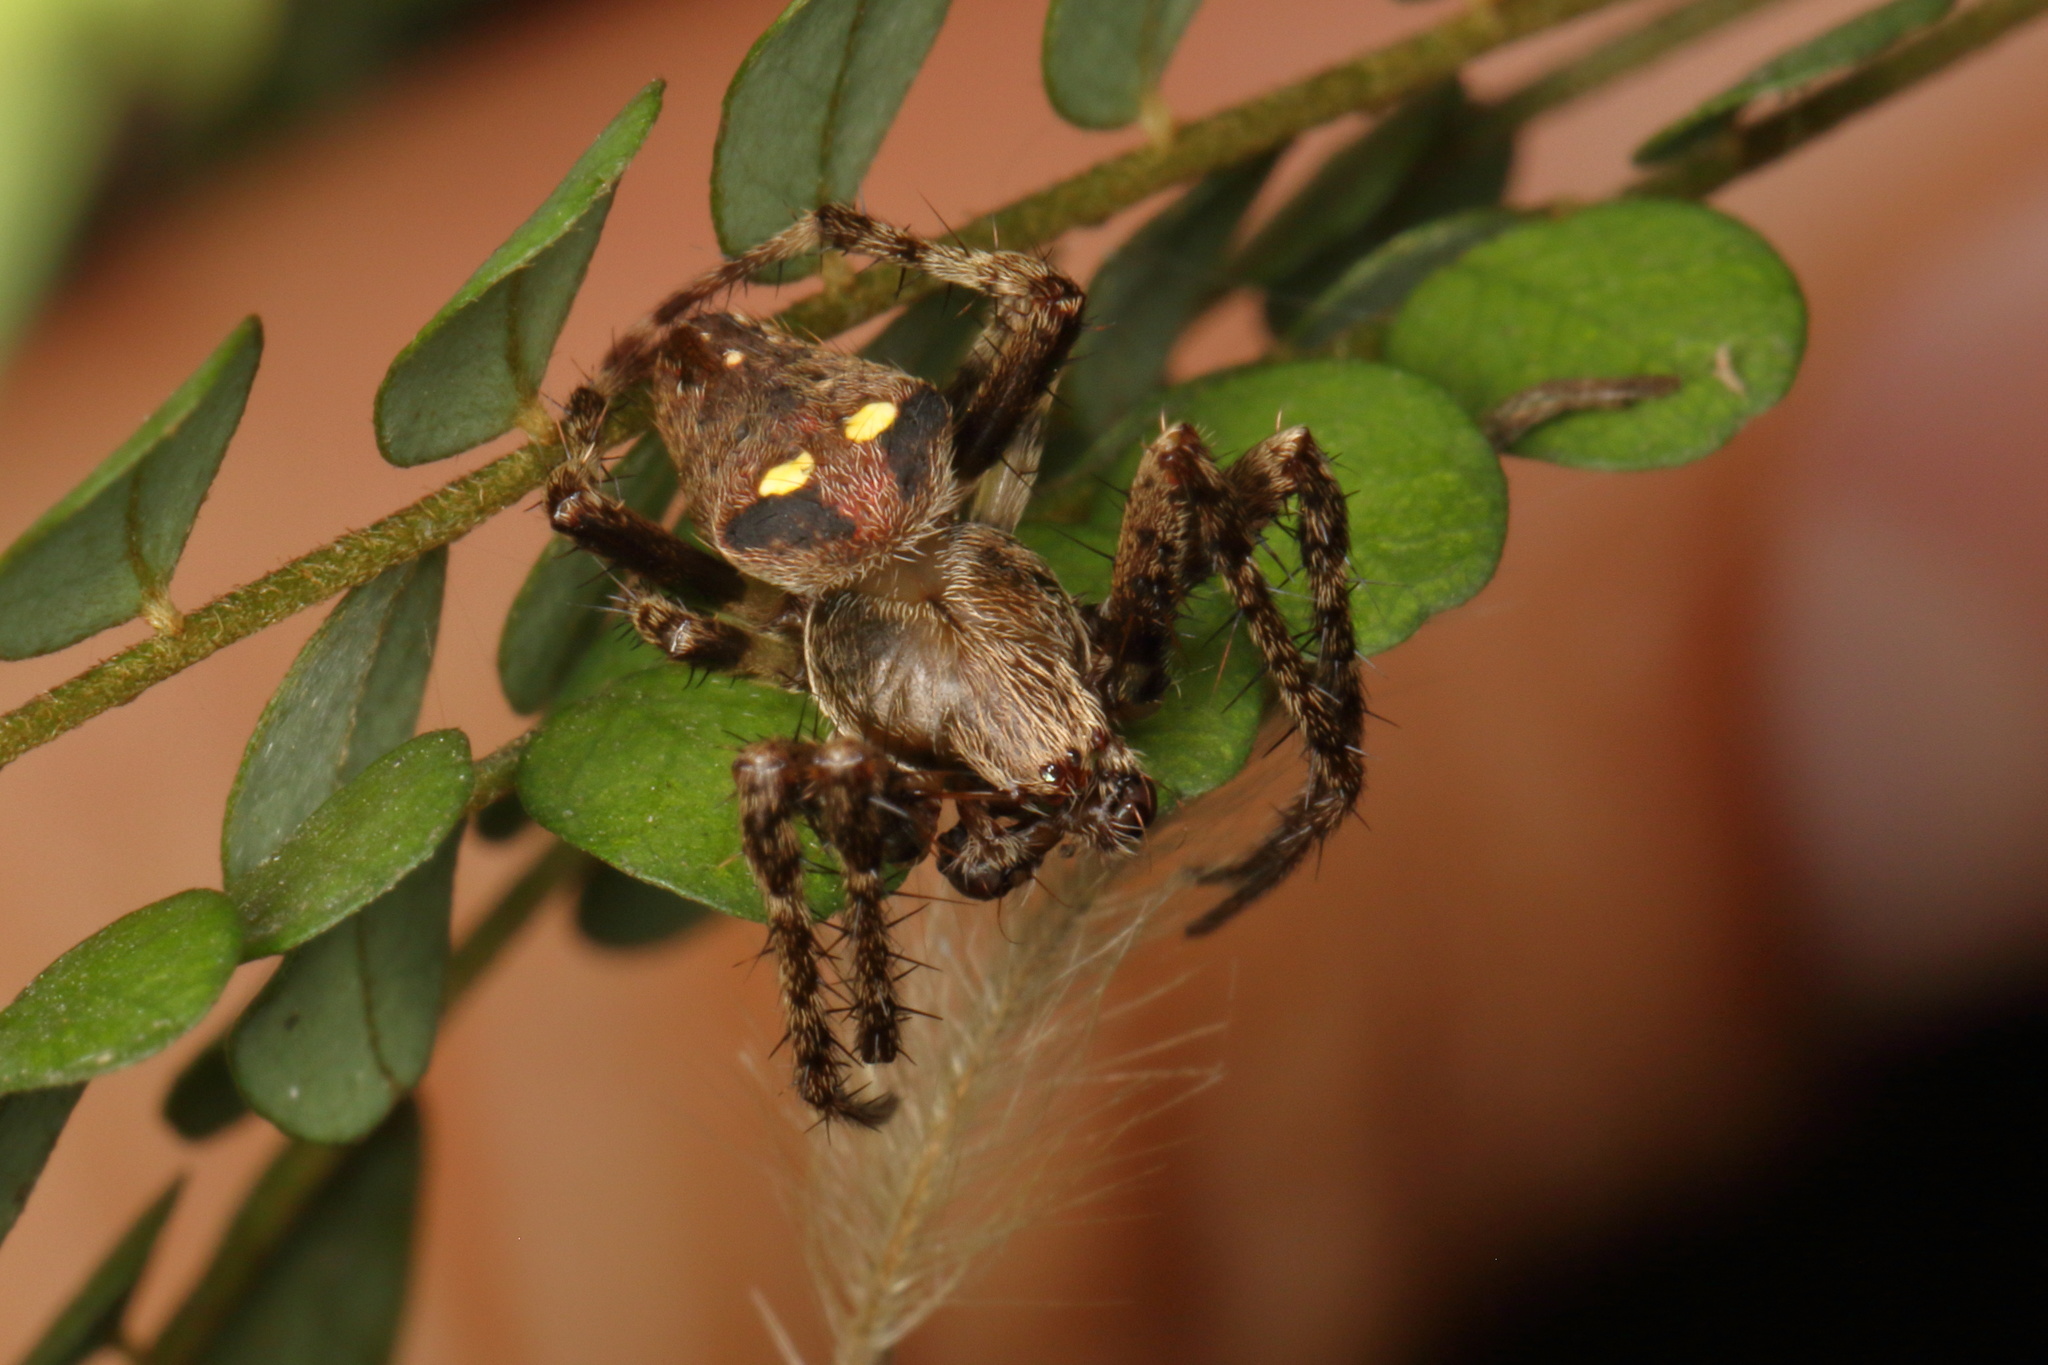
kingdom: Animalia
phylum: Arthropoda
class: Arachnida
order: Araneae
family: Araneidae
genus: Zealaranea
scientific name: Zealaranea trinotata
